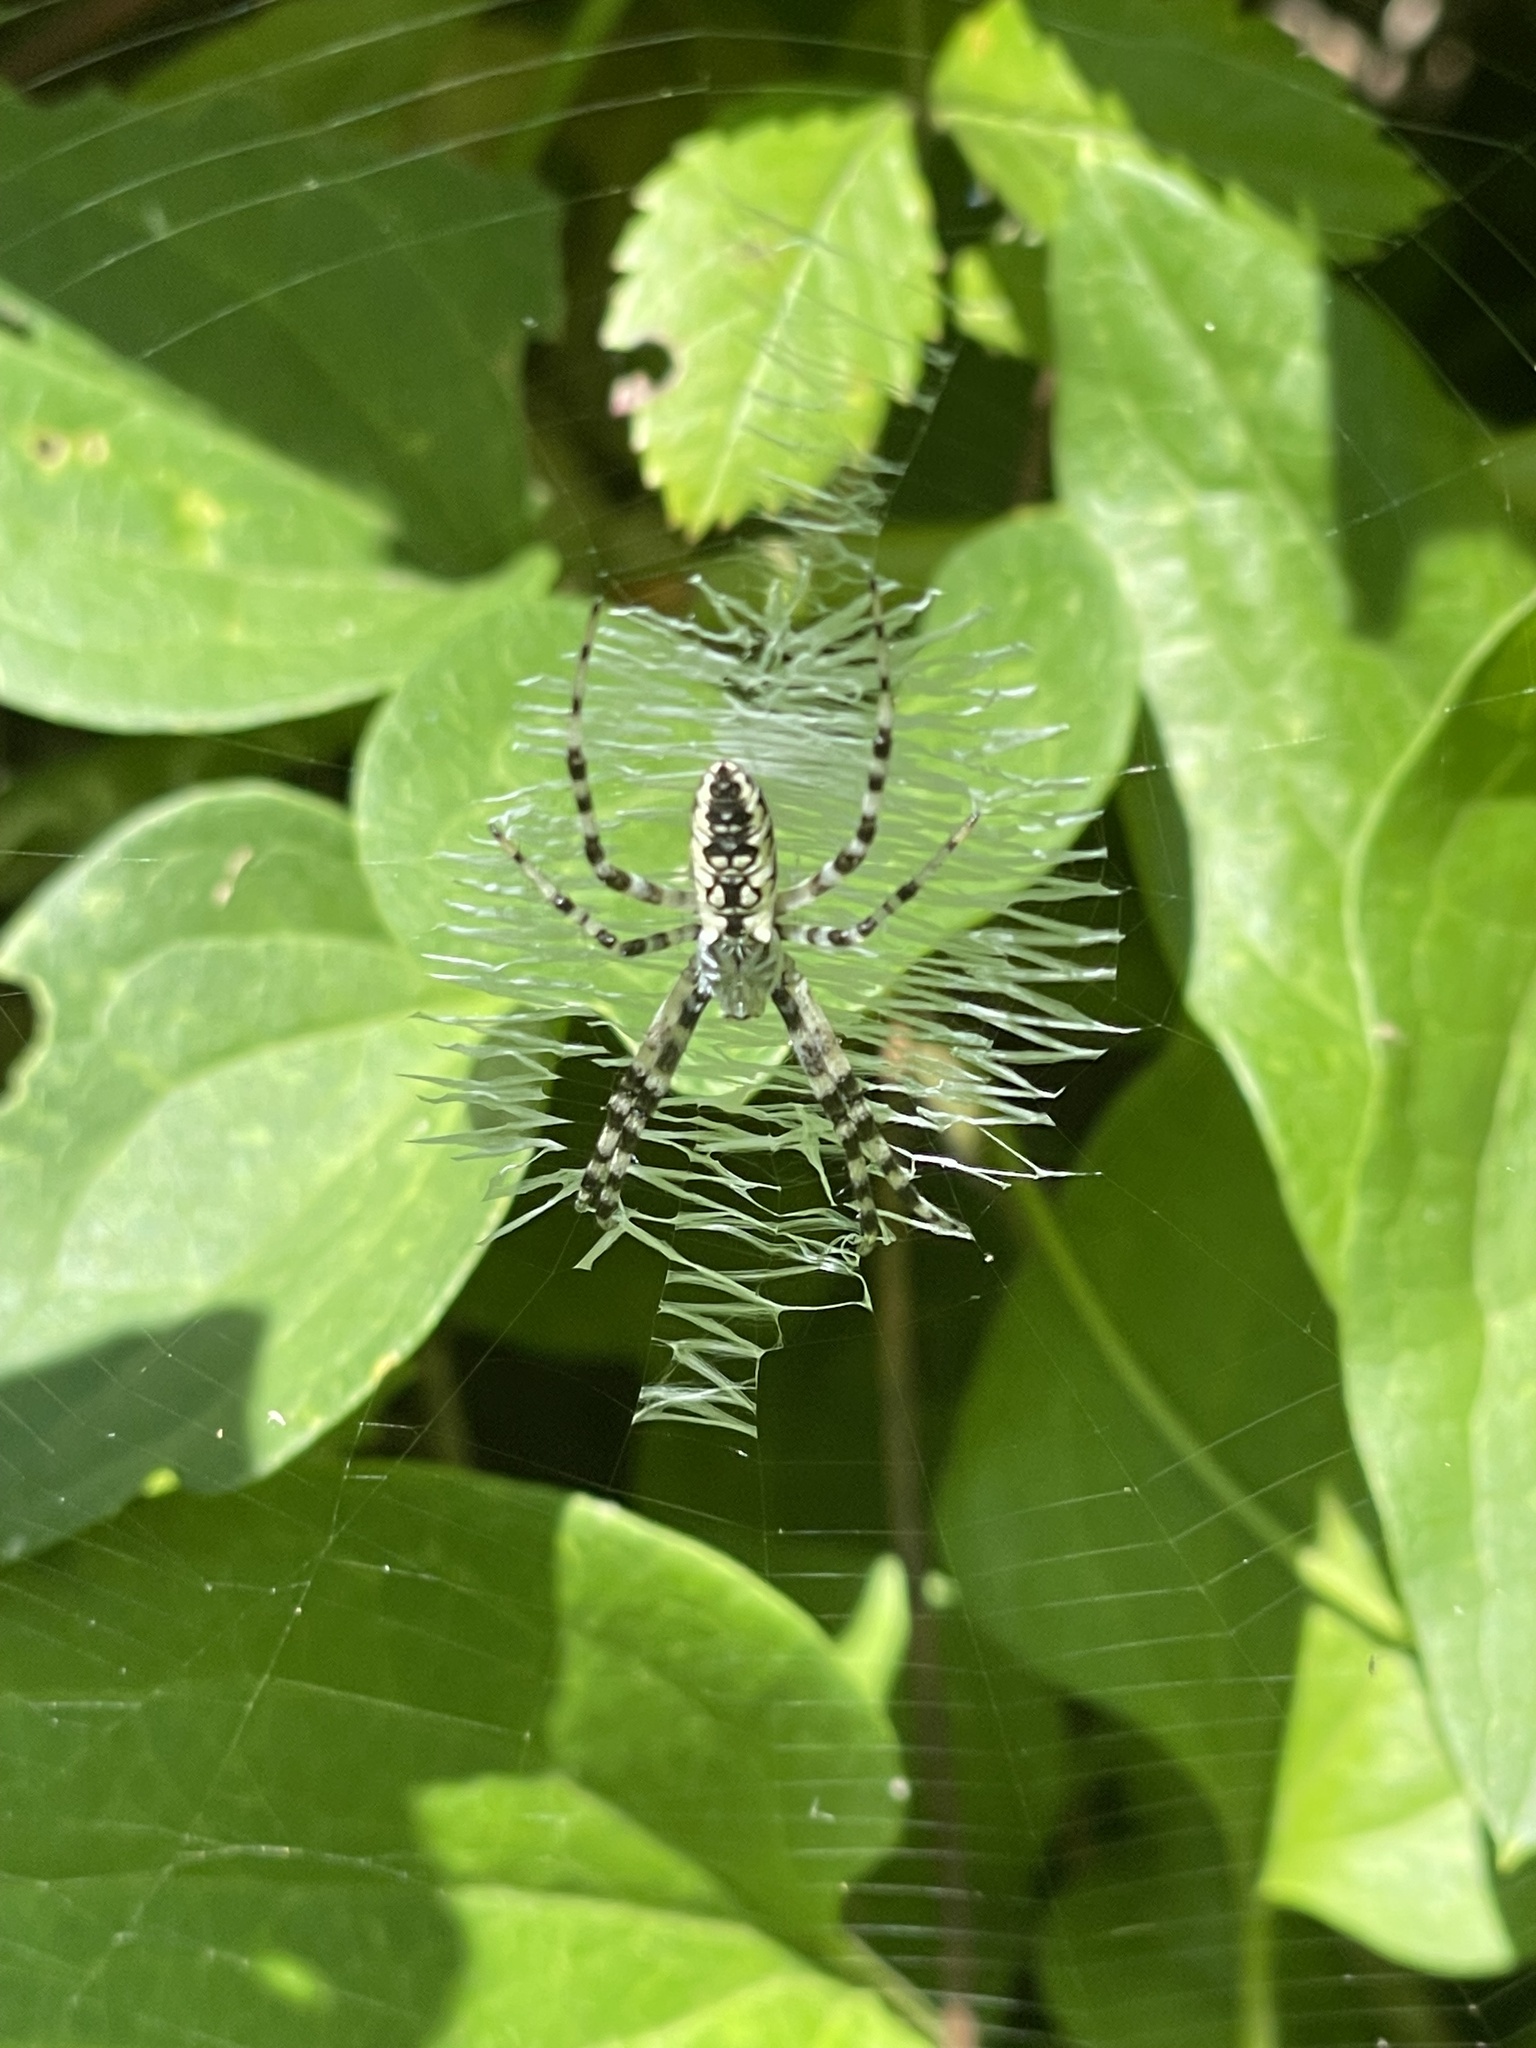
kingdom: Animalia
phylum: Arthropoda
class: Arachnida
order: Araneae
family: Araneidae
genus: Argiope
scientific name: Argiope aurantia
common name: Orb weavers
